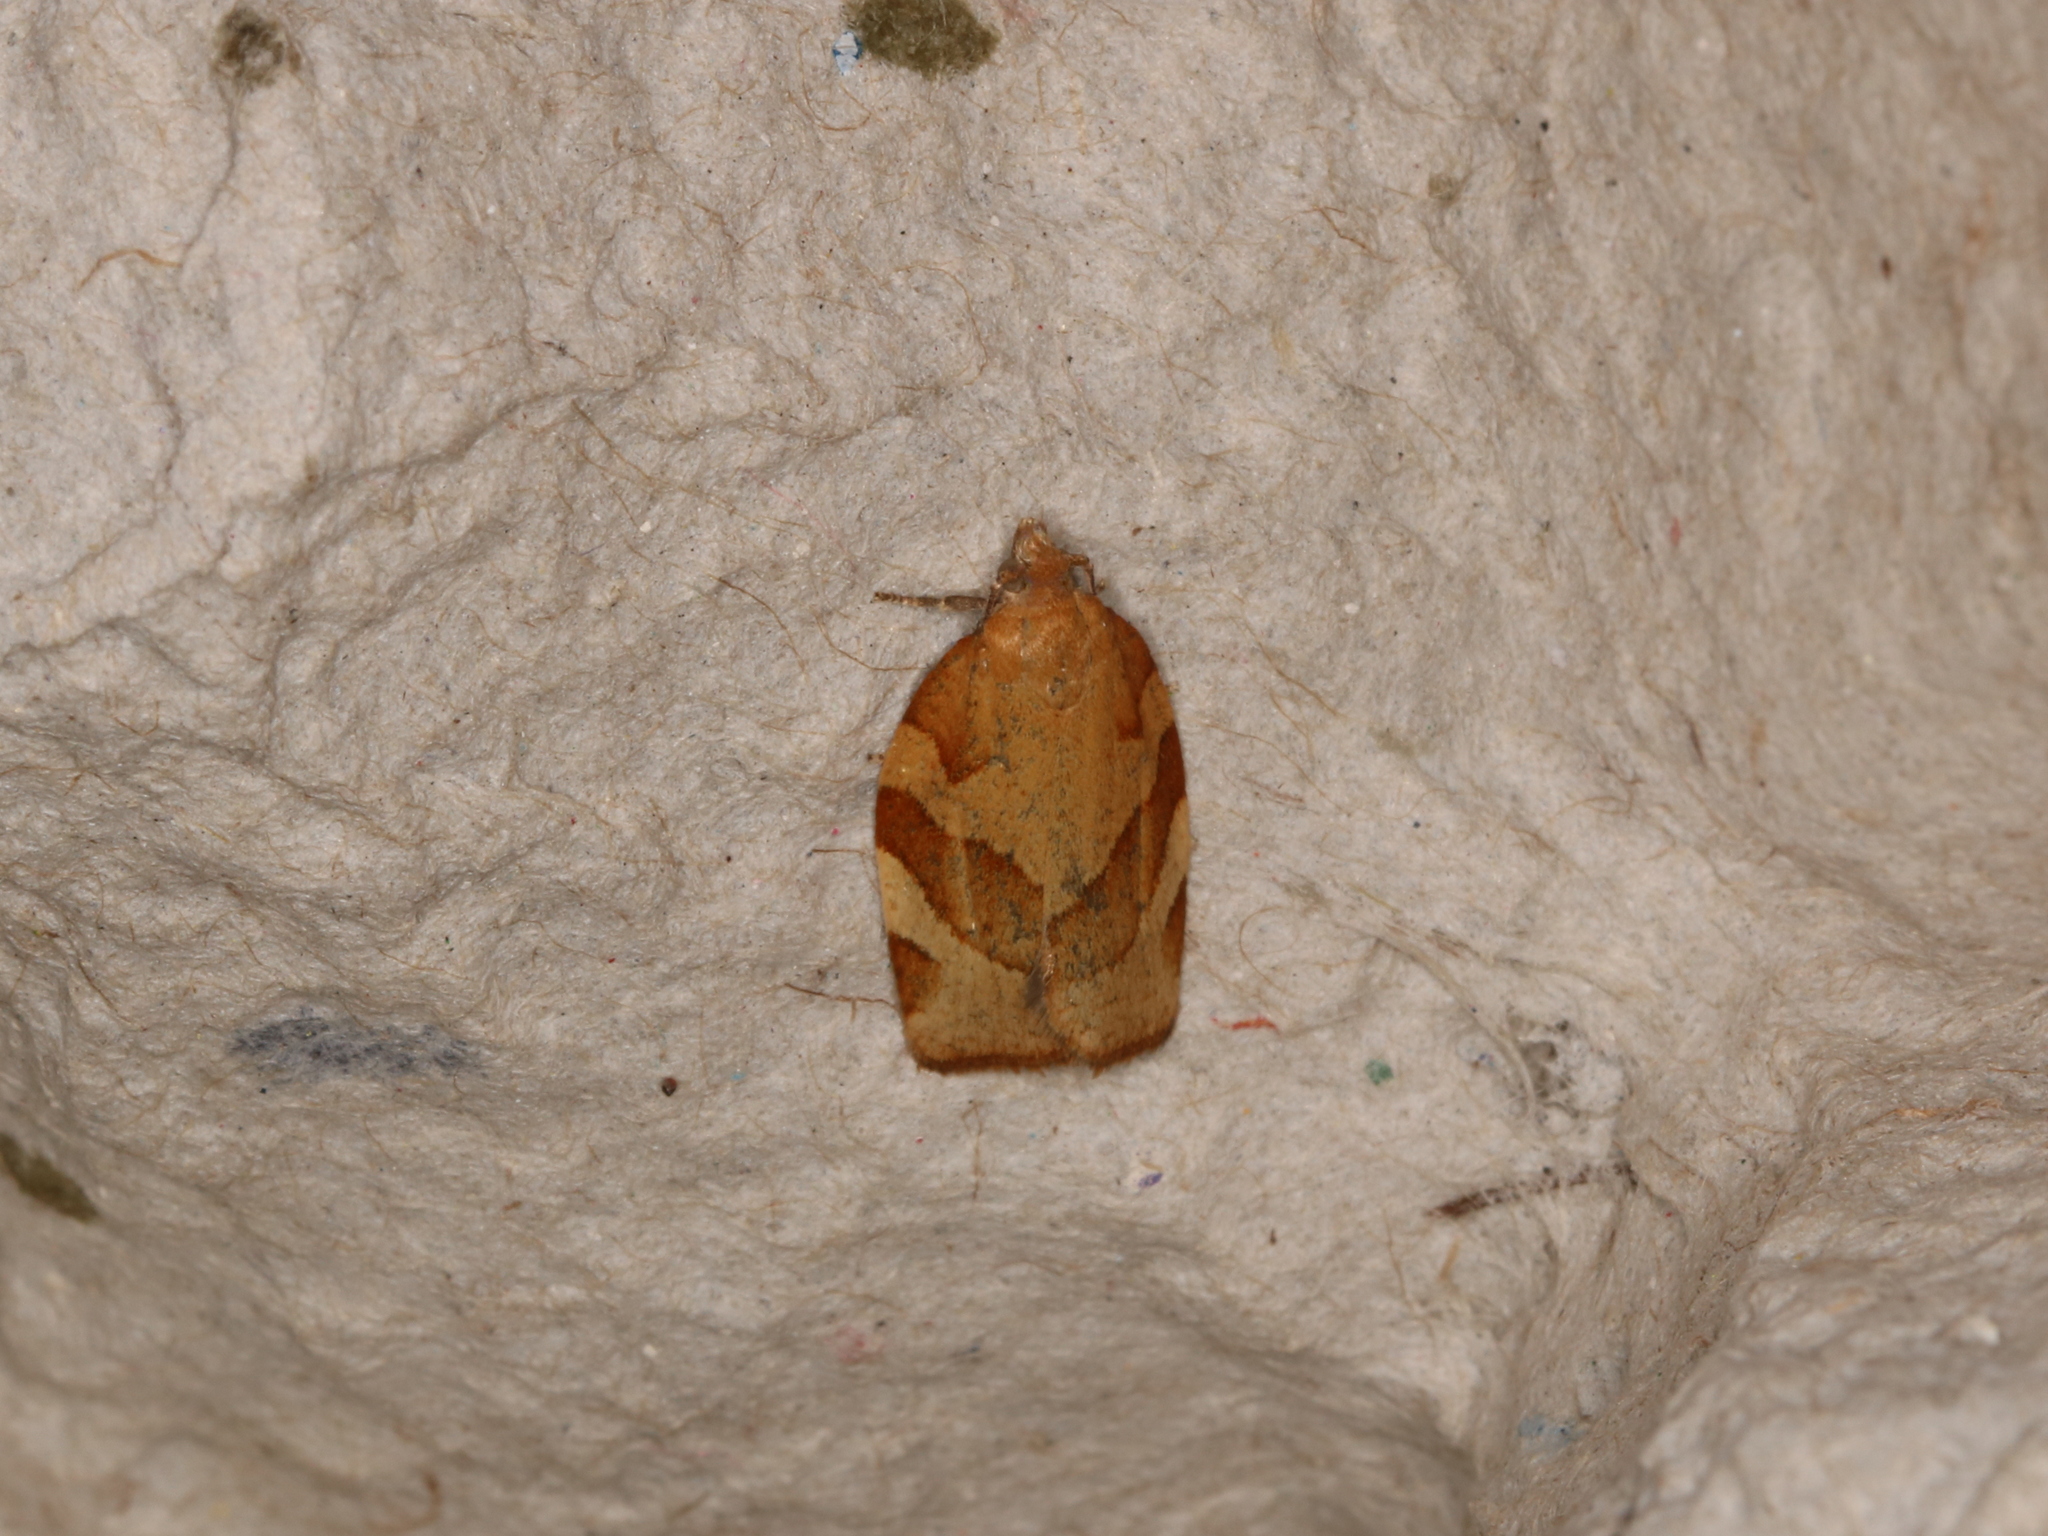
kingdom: Animalia
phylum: Arthropoda
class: Insecta
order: Lepidoptera
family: Tortricidae
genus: Pandemis
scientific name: Pandemis heparana
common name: Dark fruit-tree tortrix
